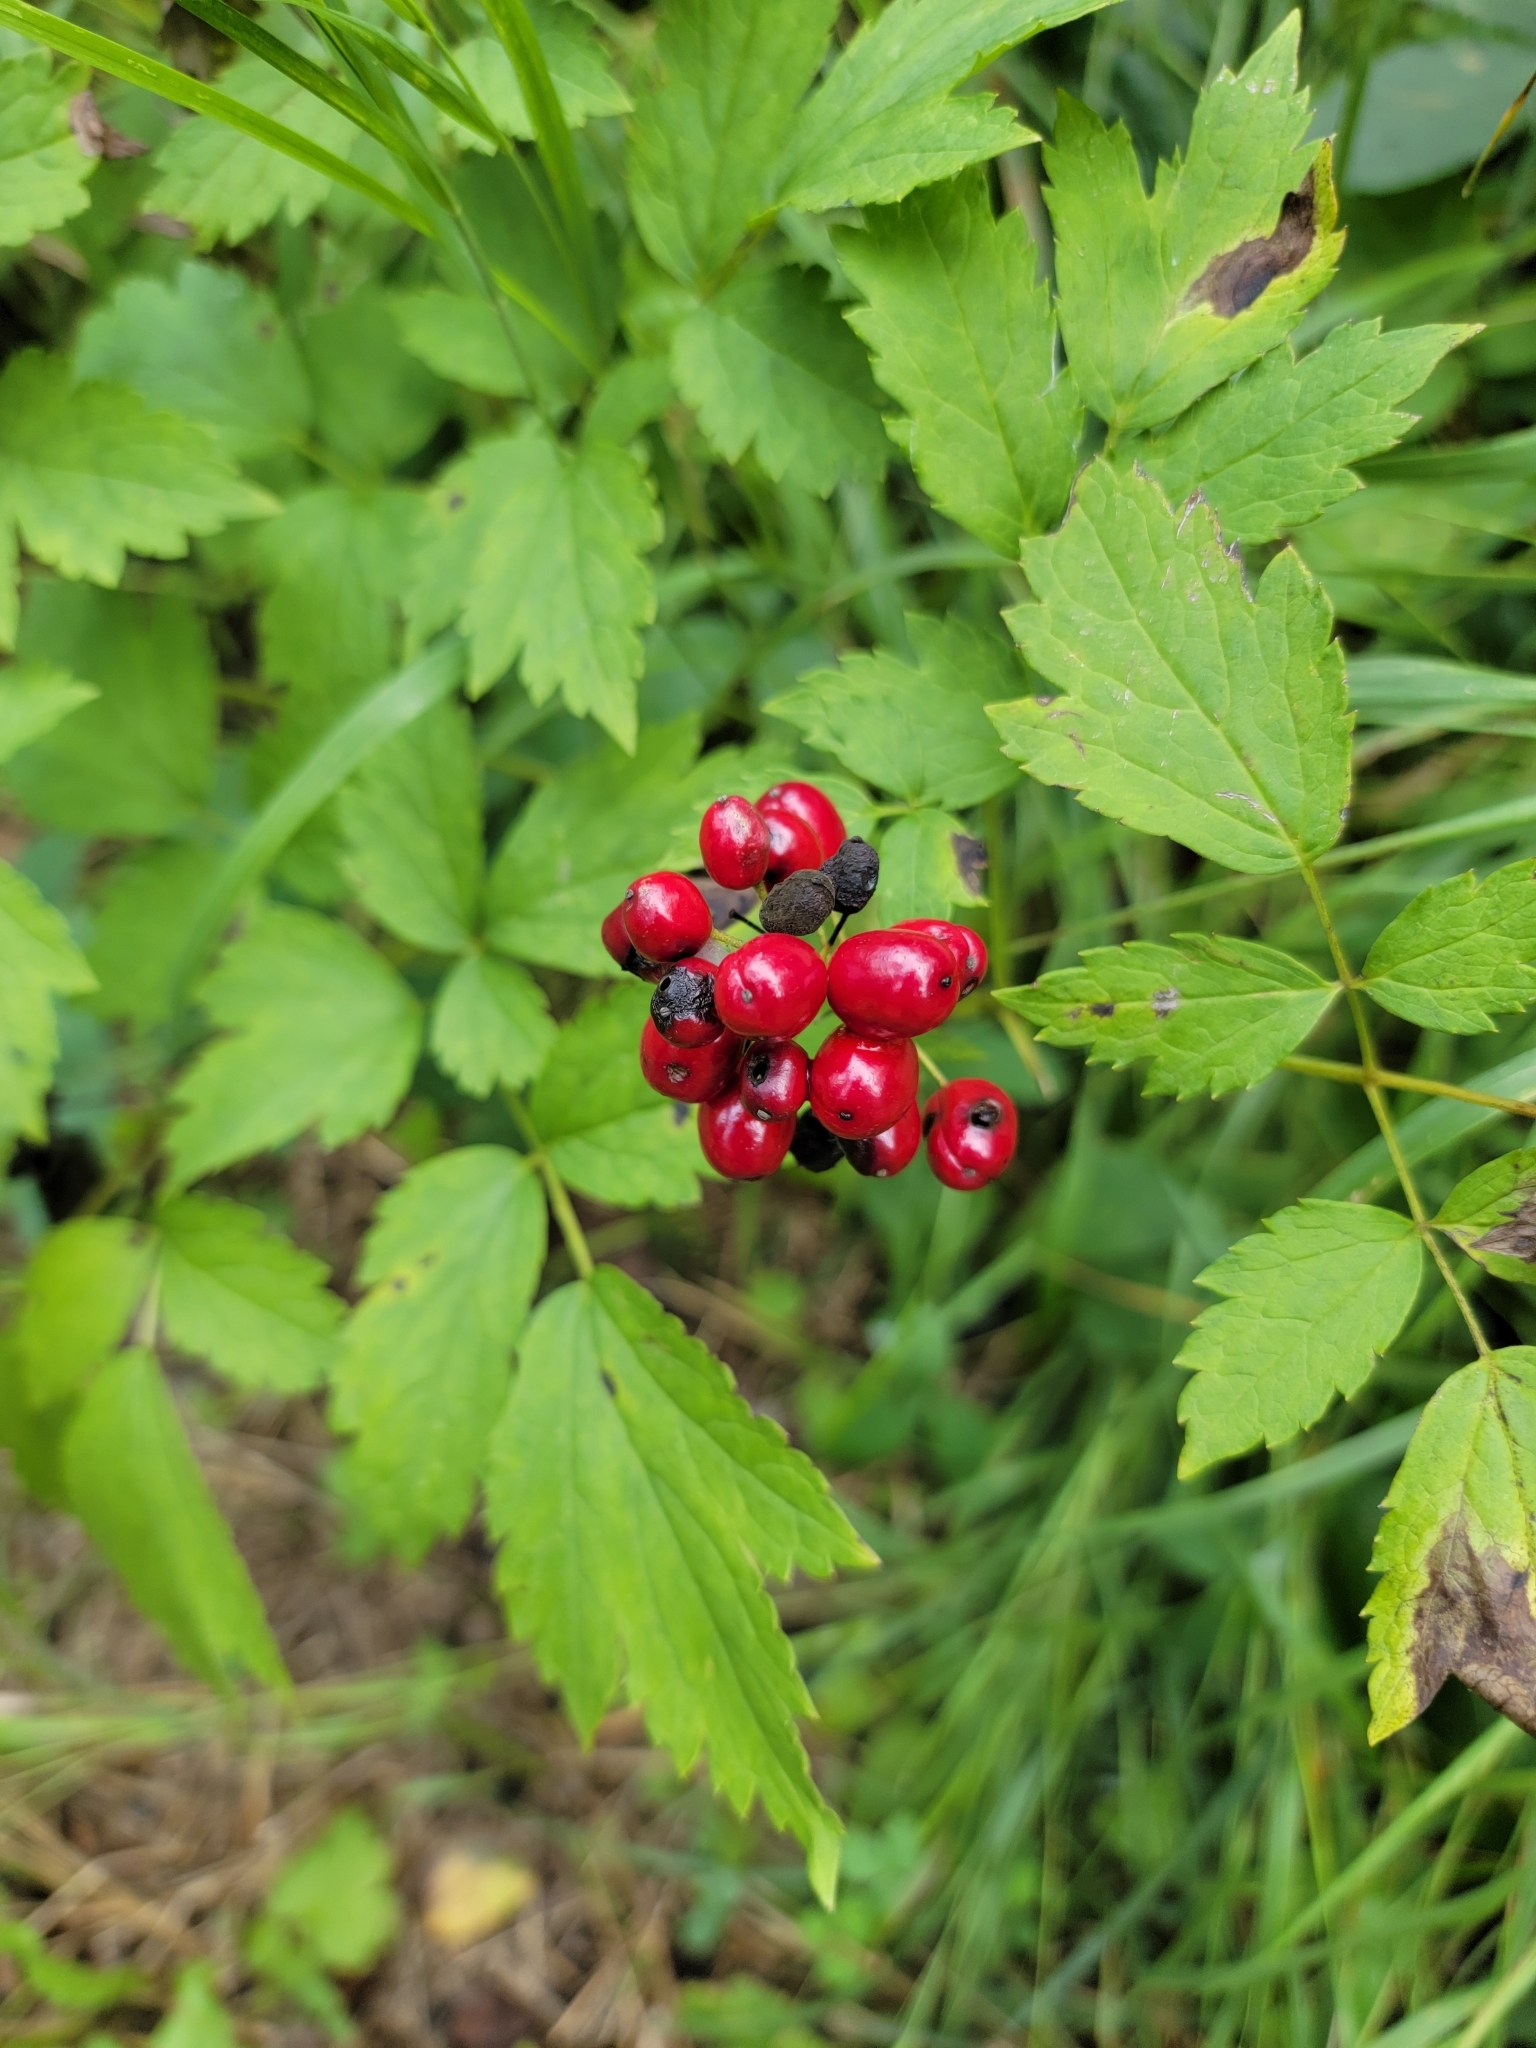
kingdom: Plantae
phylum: Tracheophyta
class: Magnoliopsida
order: Ranunculales
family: Ranunculaceae
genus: Actaea
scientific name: Actaea rubra
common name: Red baneberry
